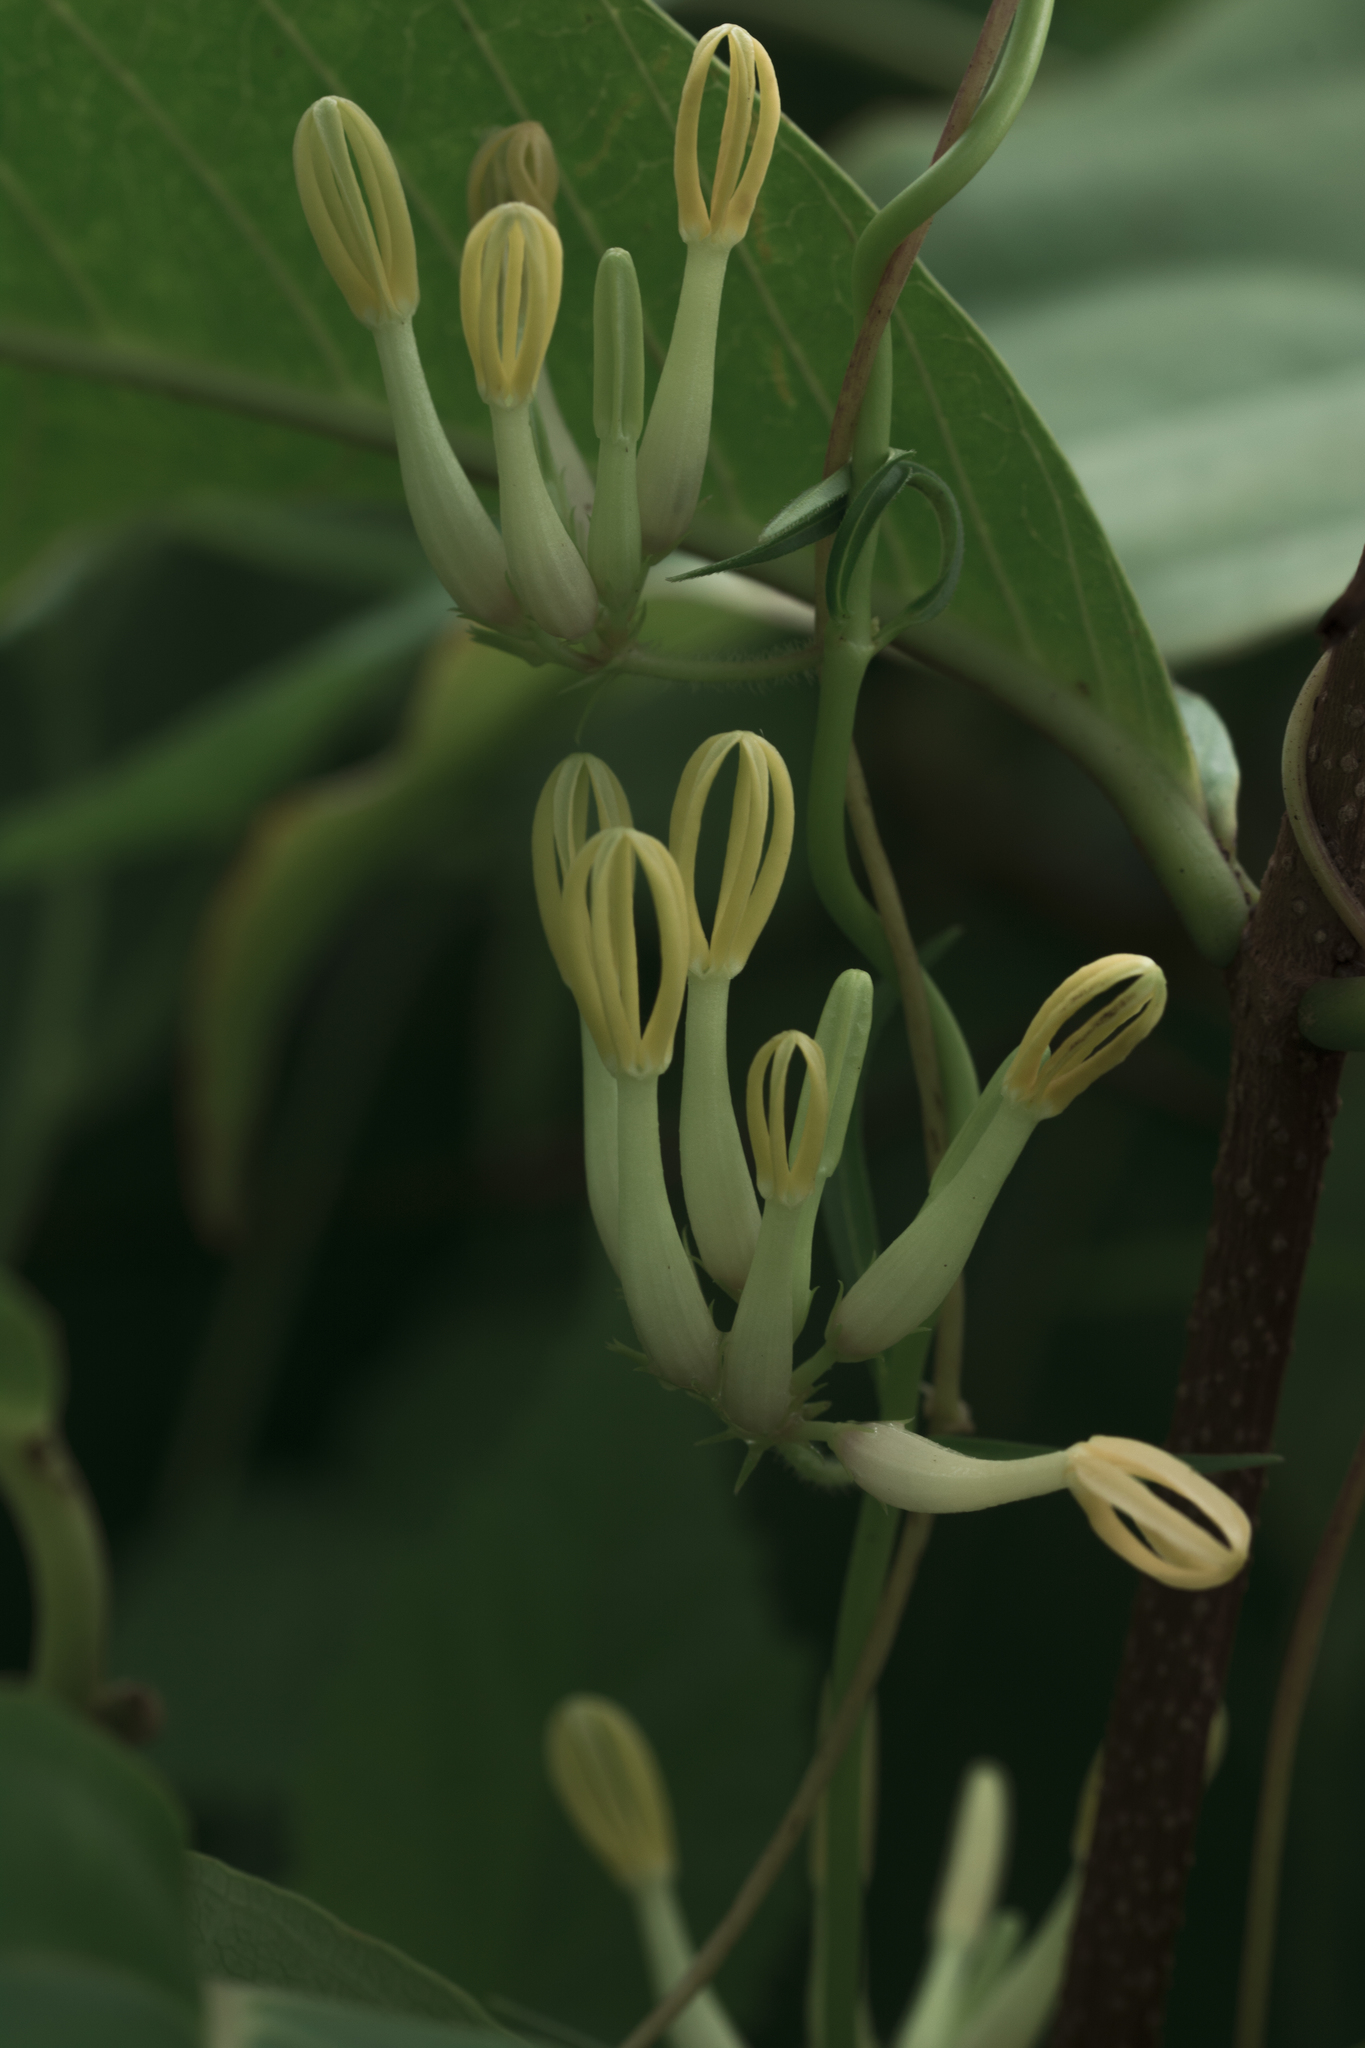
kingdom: Plantae
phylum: Tracheophyta
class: Magnoliopsida
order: Gentianales
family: Apocynaceae
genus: Ceropegia
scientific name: Ceropegia odorata
